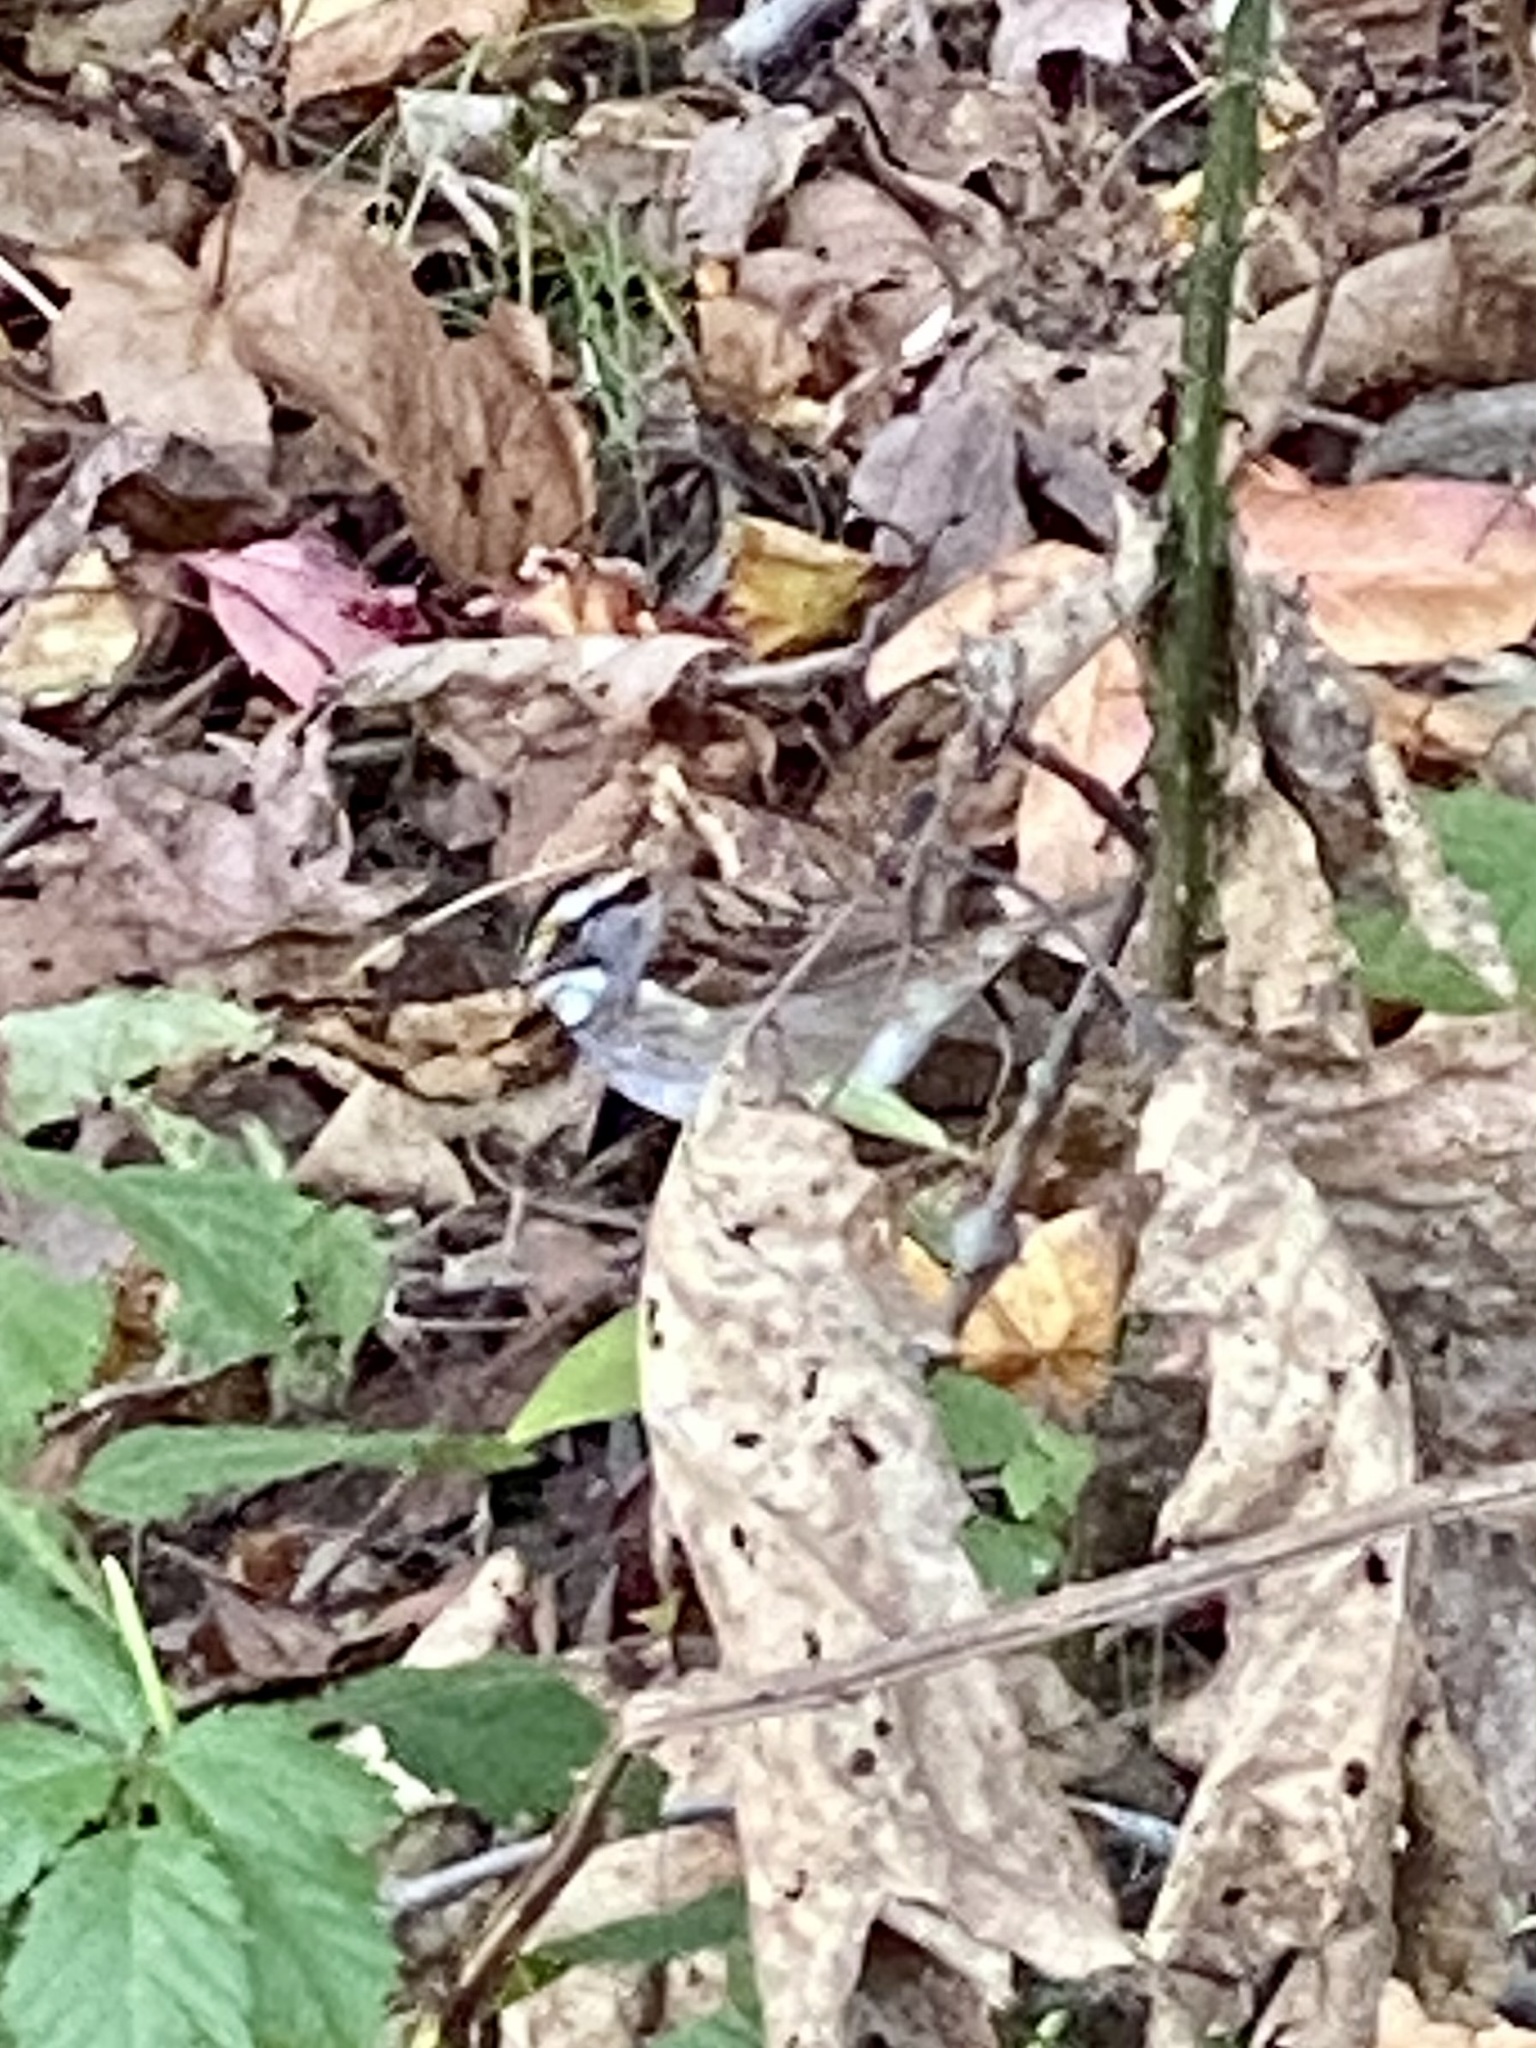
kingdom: Animalia
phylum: Chordata
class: Aves
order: Passeriformes
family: Passerellidae
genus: Zonotrichia
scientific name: Zonotrichia albicollis
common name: White-throated sparrow
